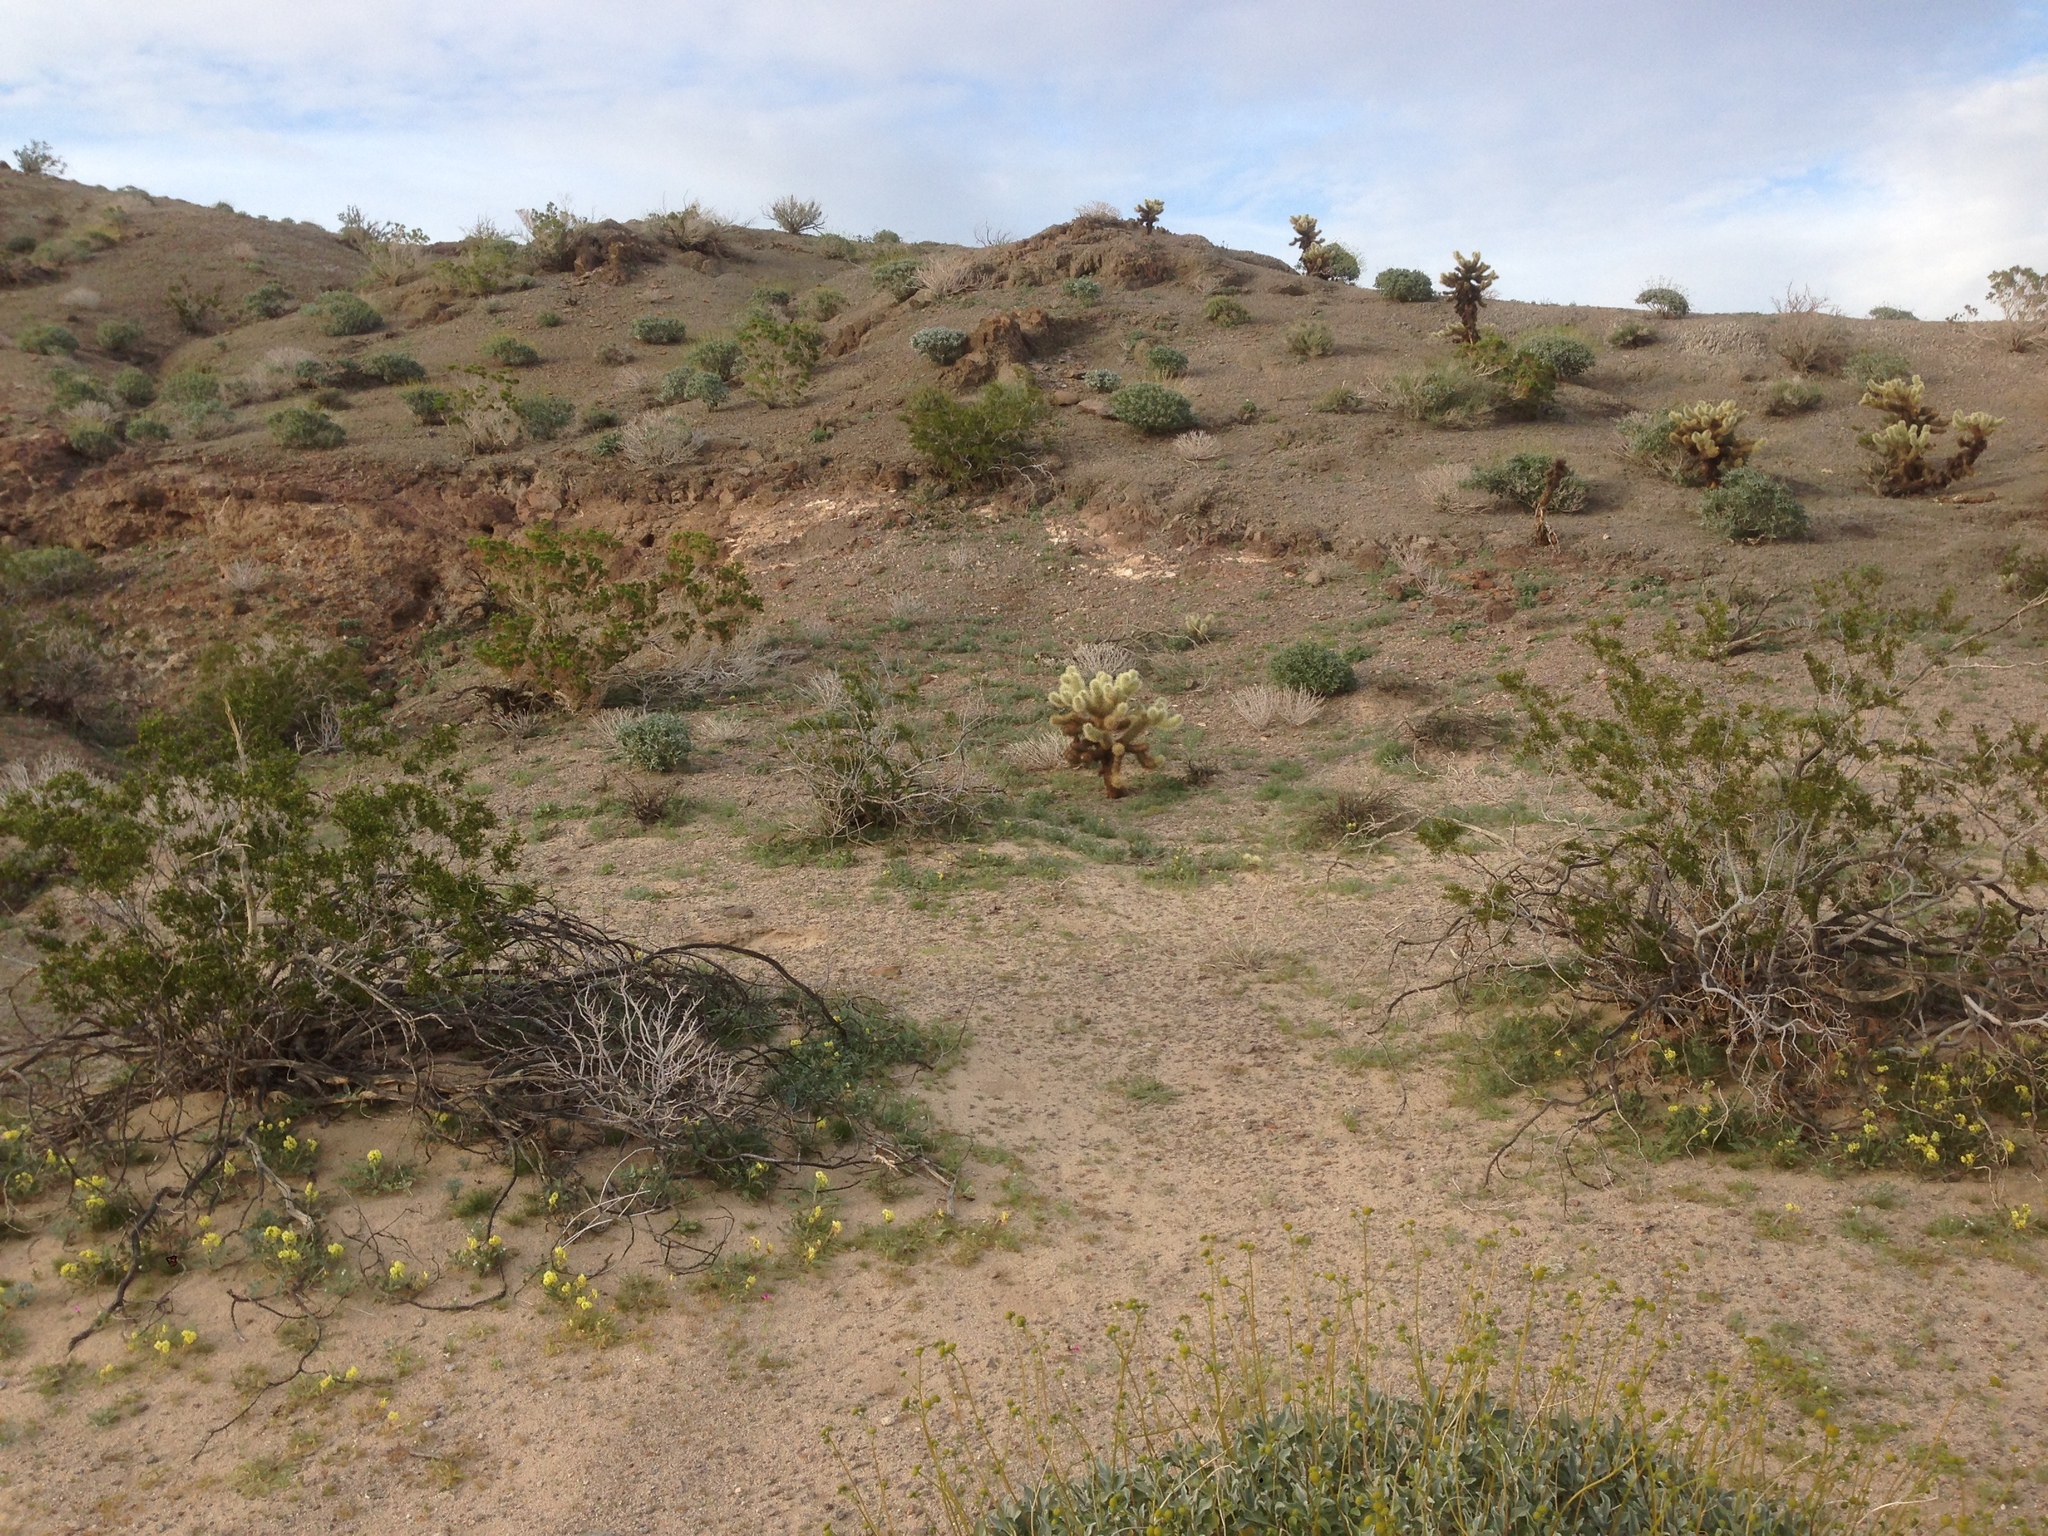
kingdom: Plantae
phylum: Tracheophyta
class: Magnoliopsida
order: Zygophyllales
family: Zygophyllaceae
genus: Larrea
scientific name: Larrea tridentata
